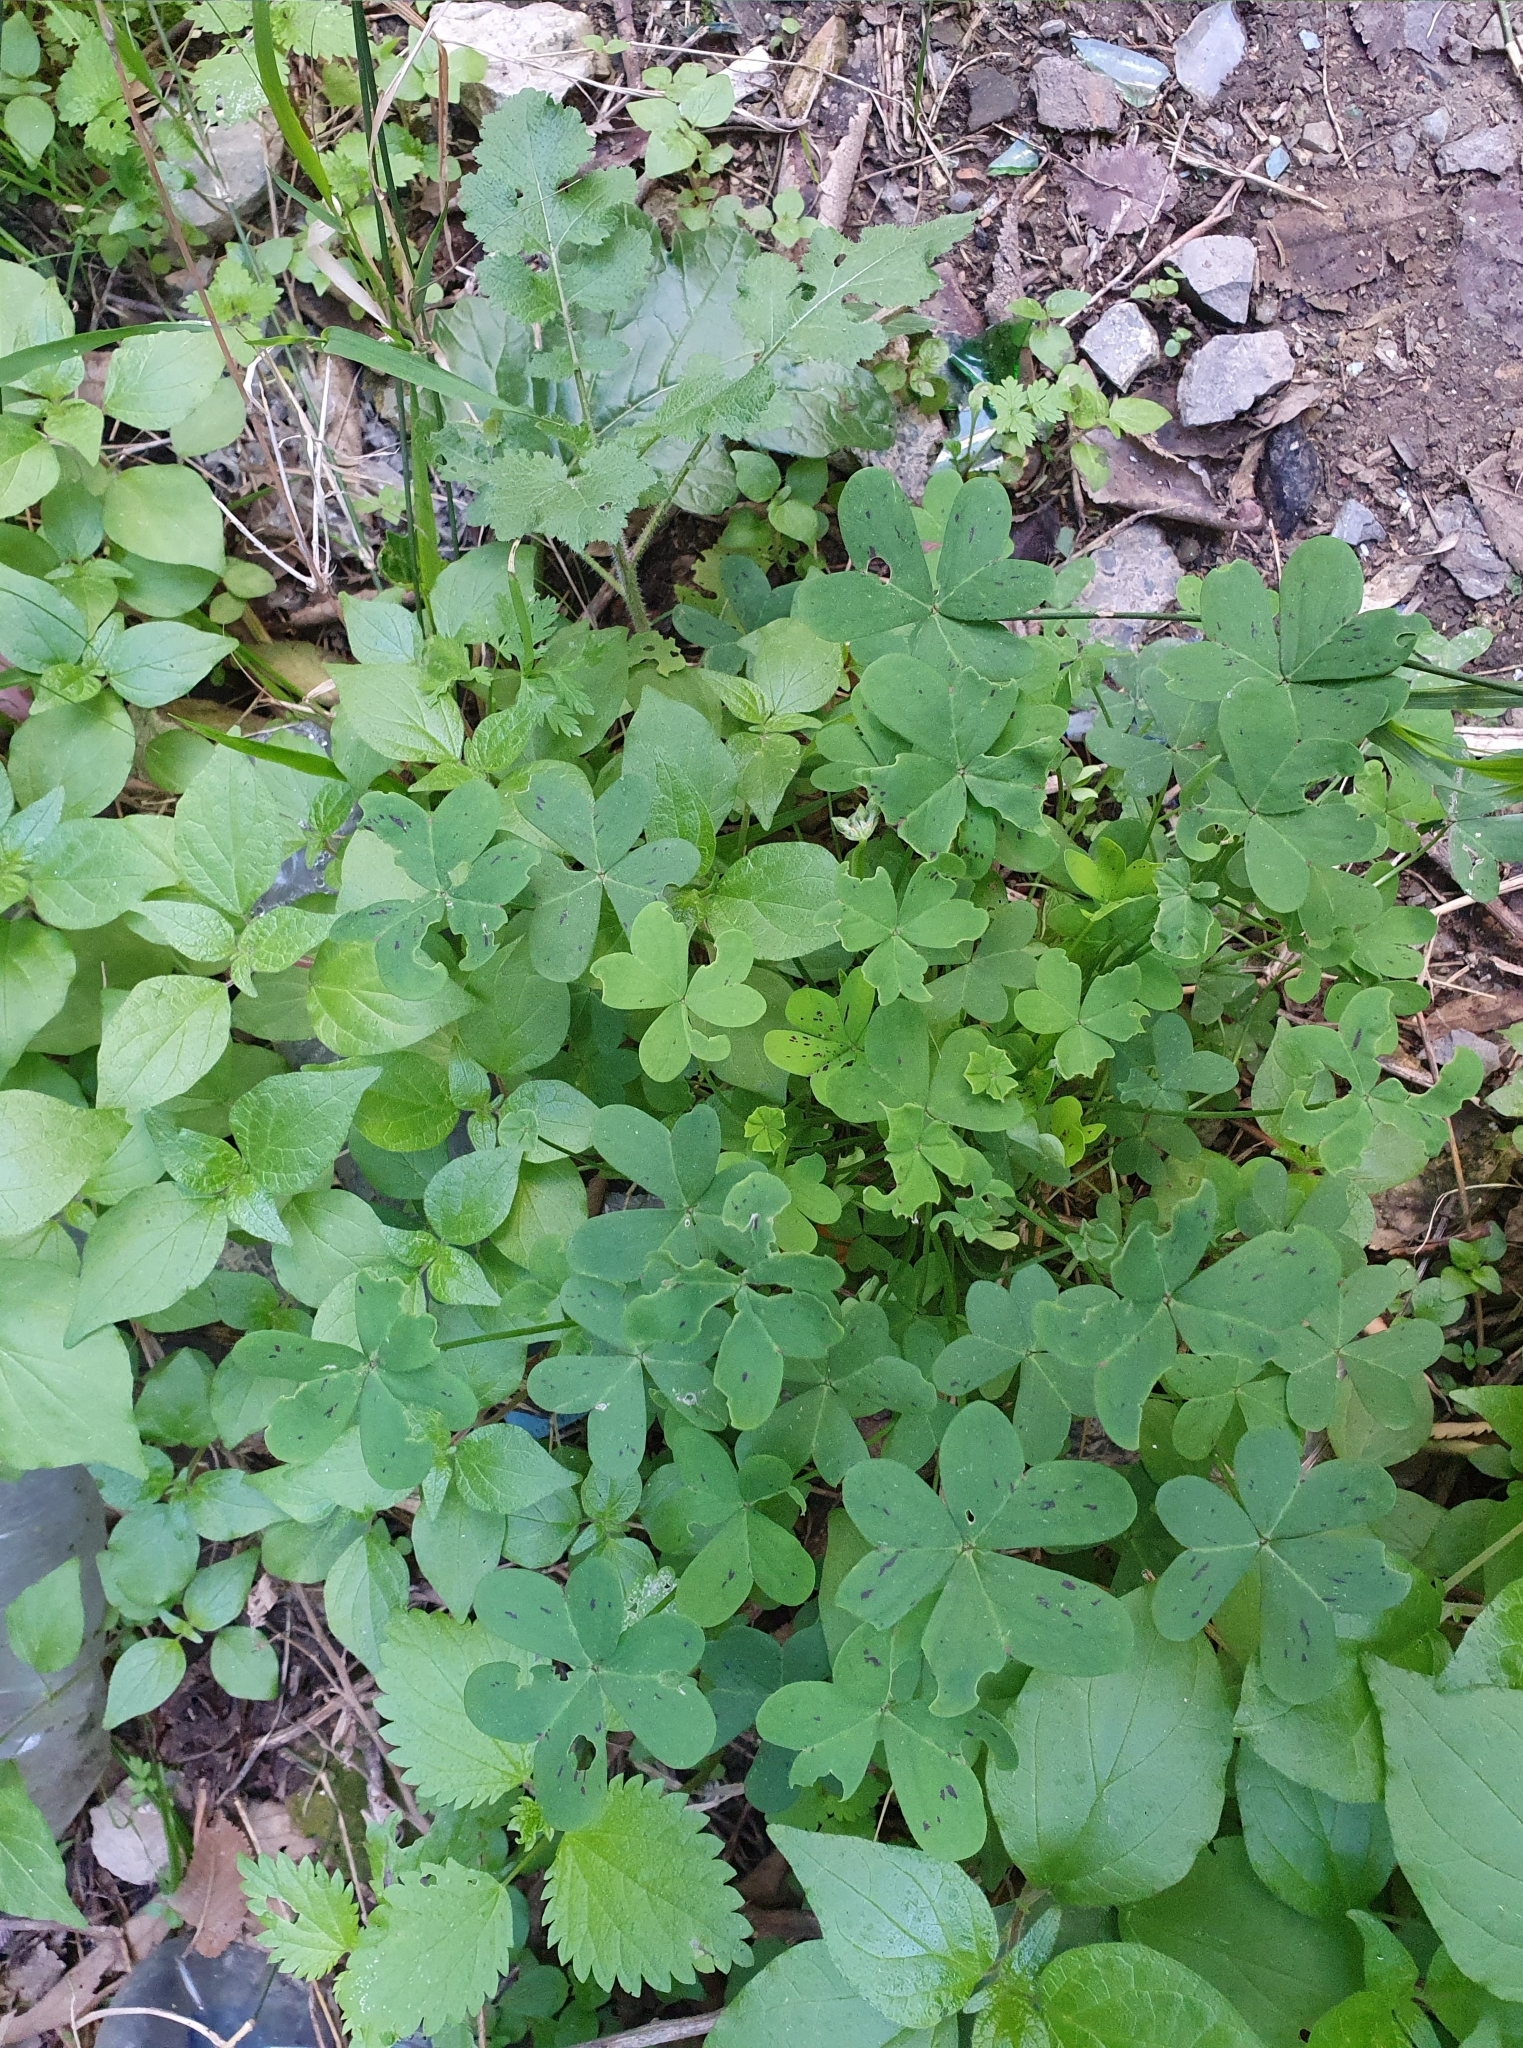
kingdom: Plantae
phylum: Tracheophyta
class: Magnoliopsida
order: Oxalidales
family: Oxalidaceae
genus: Oxalis
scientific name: Oxalis pes-caprae
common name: Bermuda-buttercup
